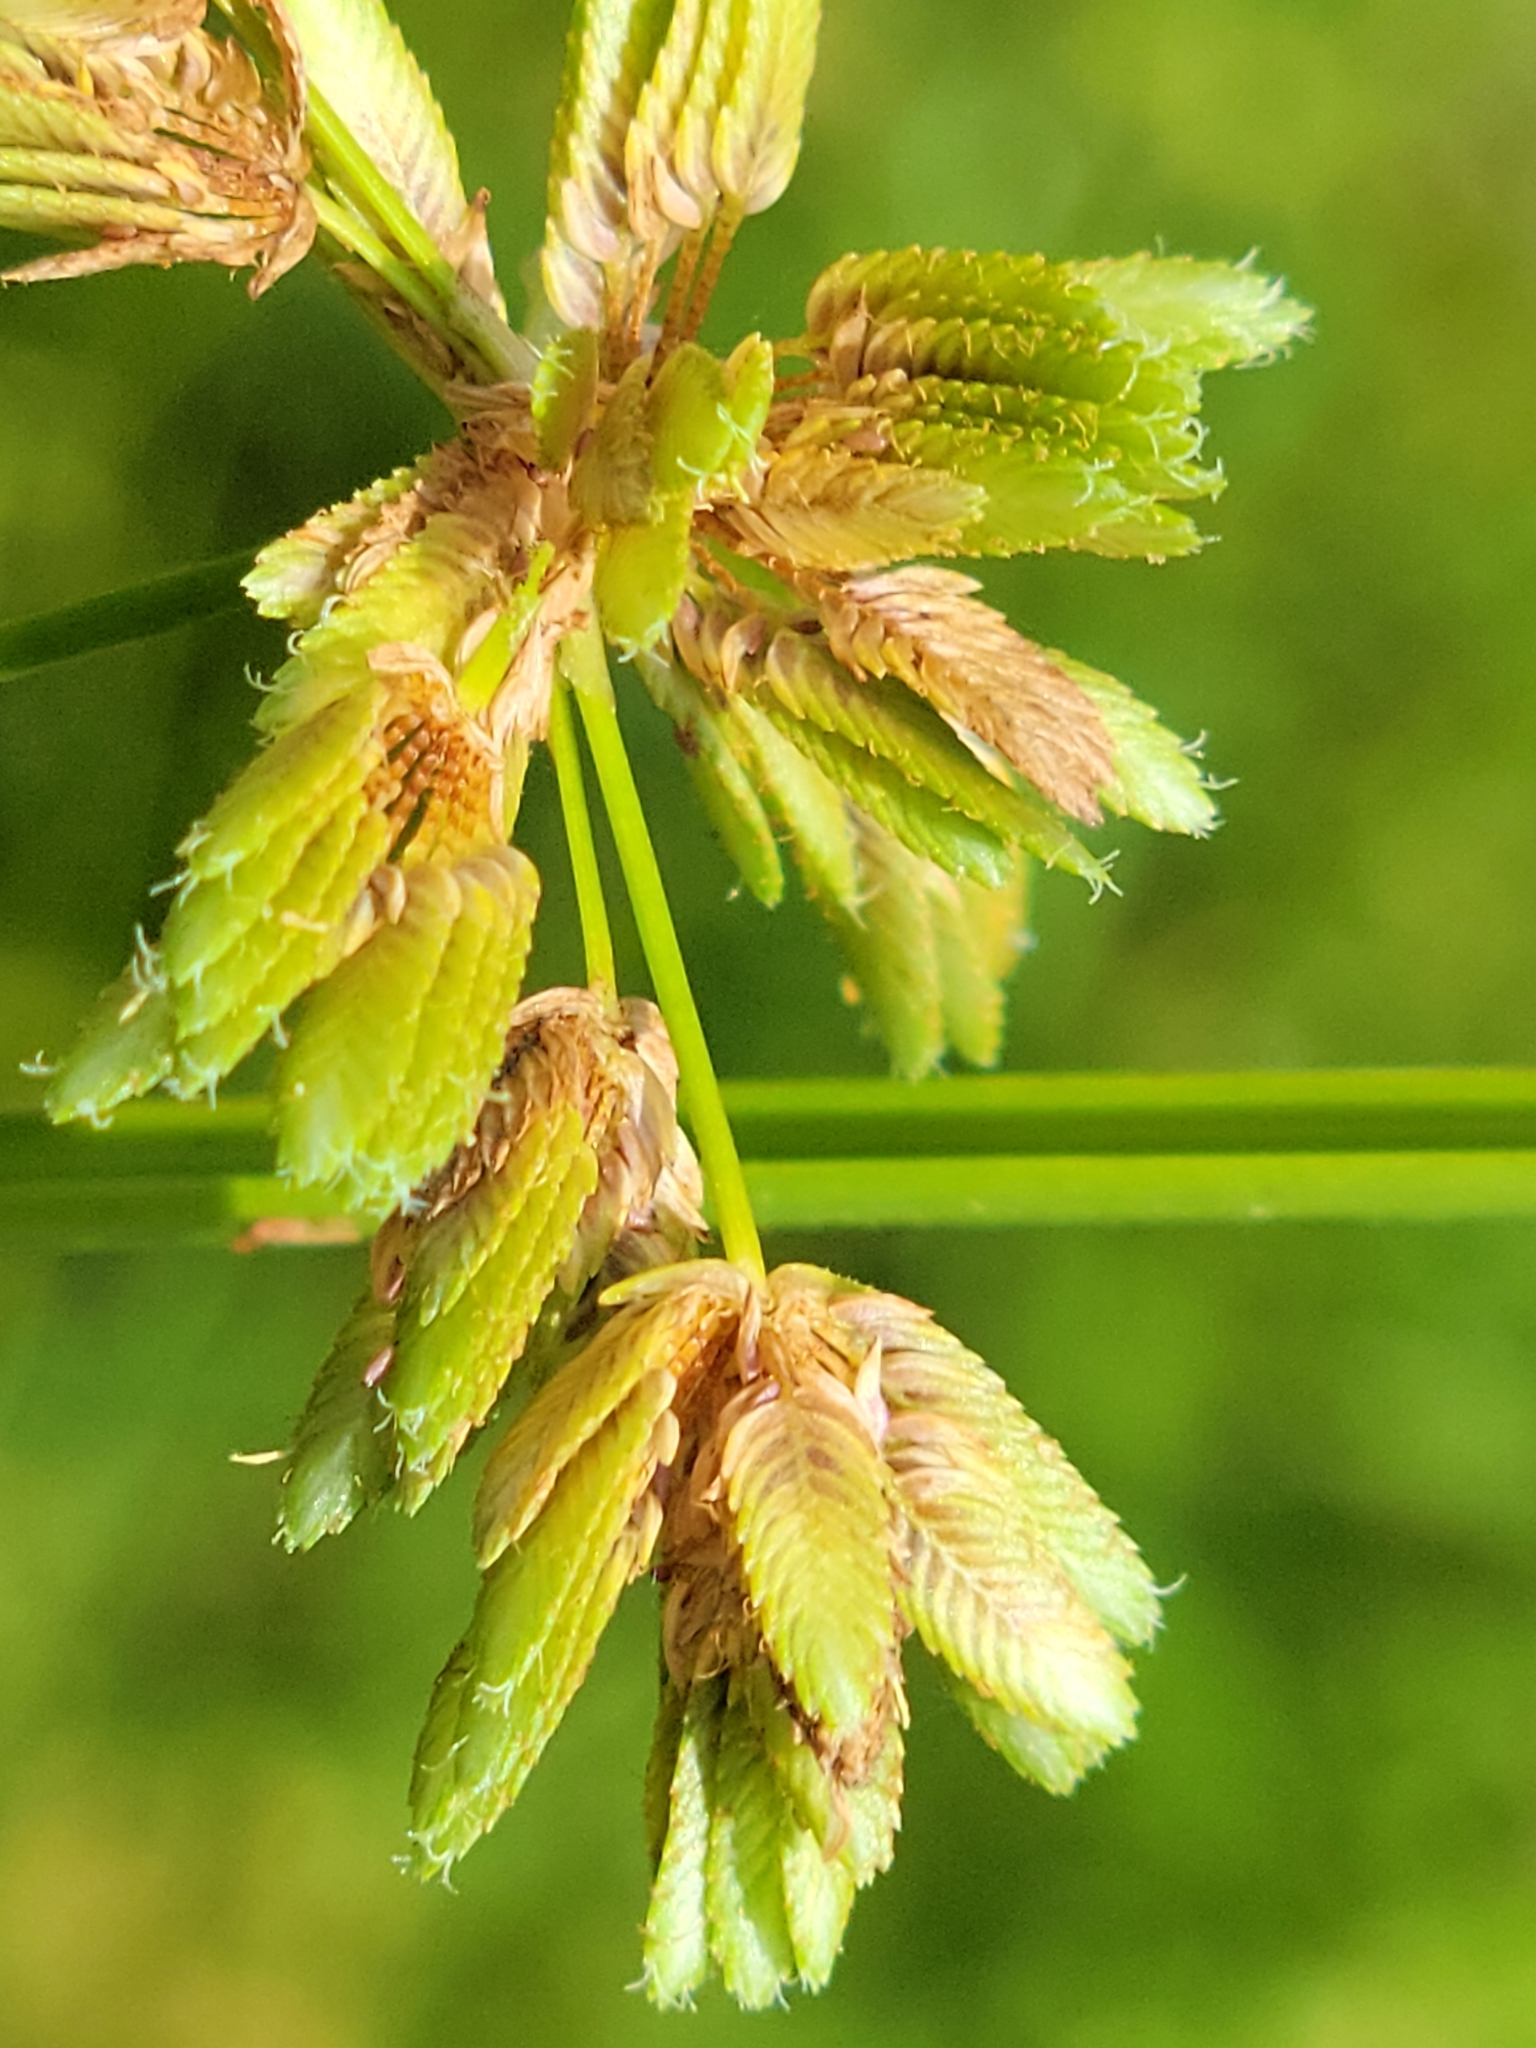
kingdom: Plantae
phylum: Tracheophyta
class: Liliopsida
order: Poales
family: Cyperaceae
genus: Cyperus
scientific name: Cyperus surinamensis
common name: Tropical flat sedge
